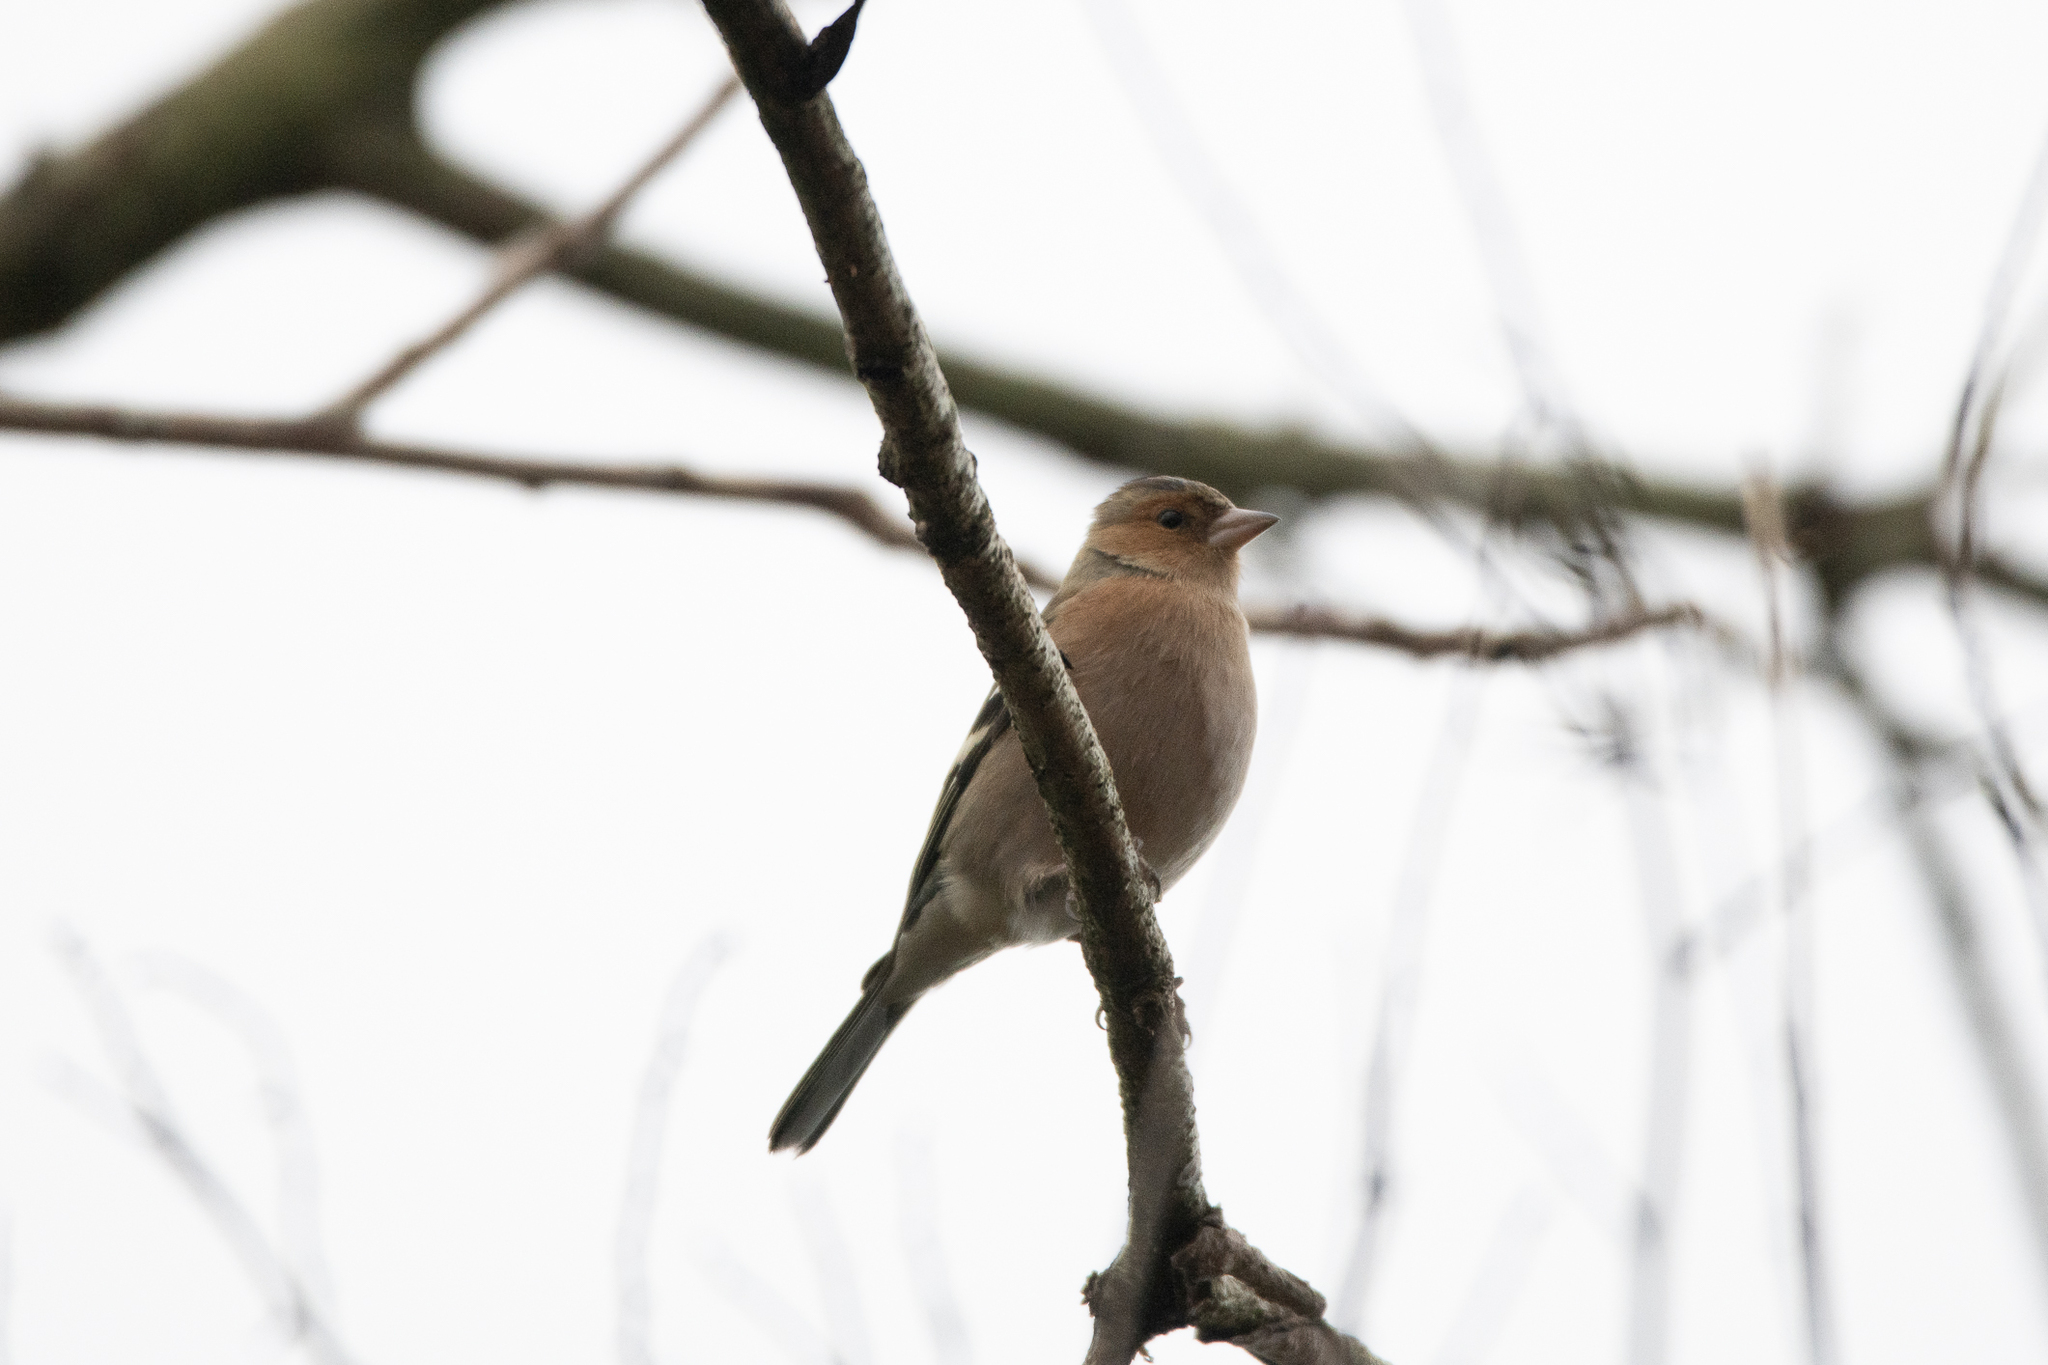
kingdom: Animalia
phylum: Chordata
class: Aves
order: Passeriformes
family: Fringillidae
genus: Fringilla
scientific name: Fringilla coelebs
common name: Common chaffinch
